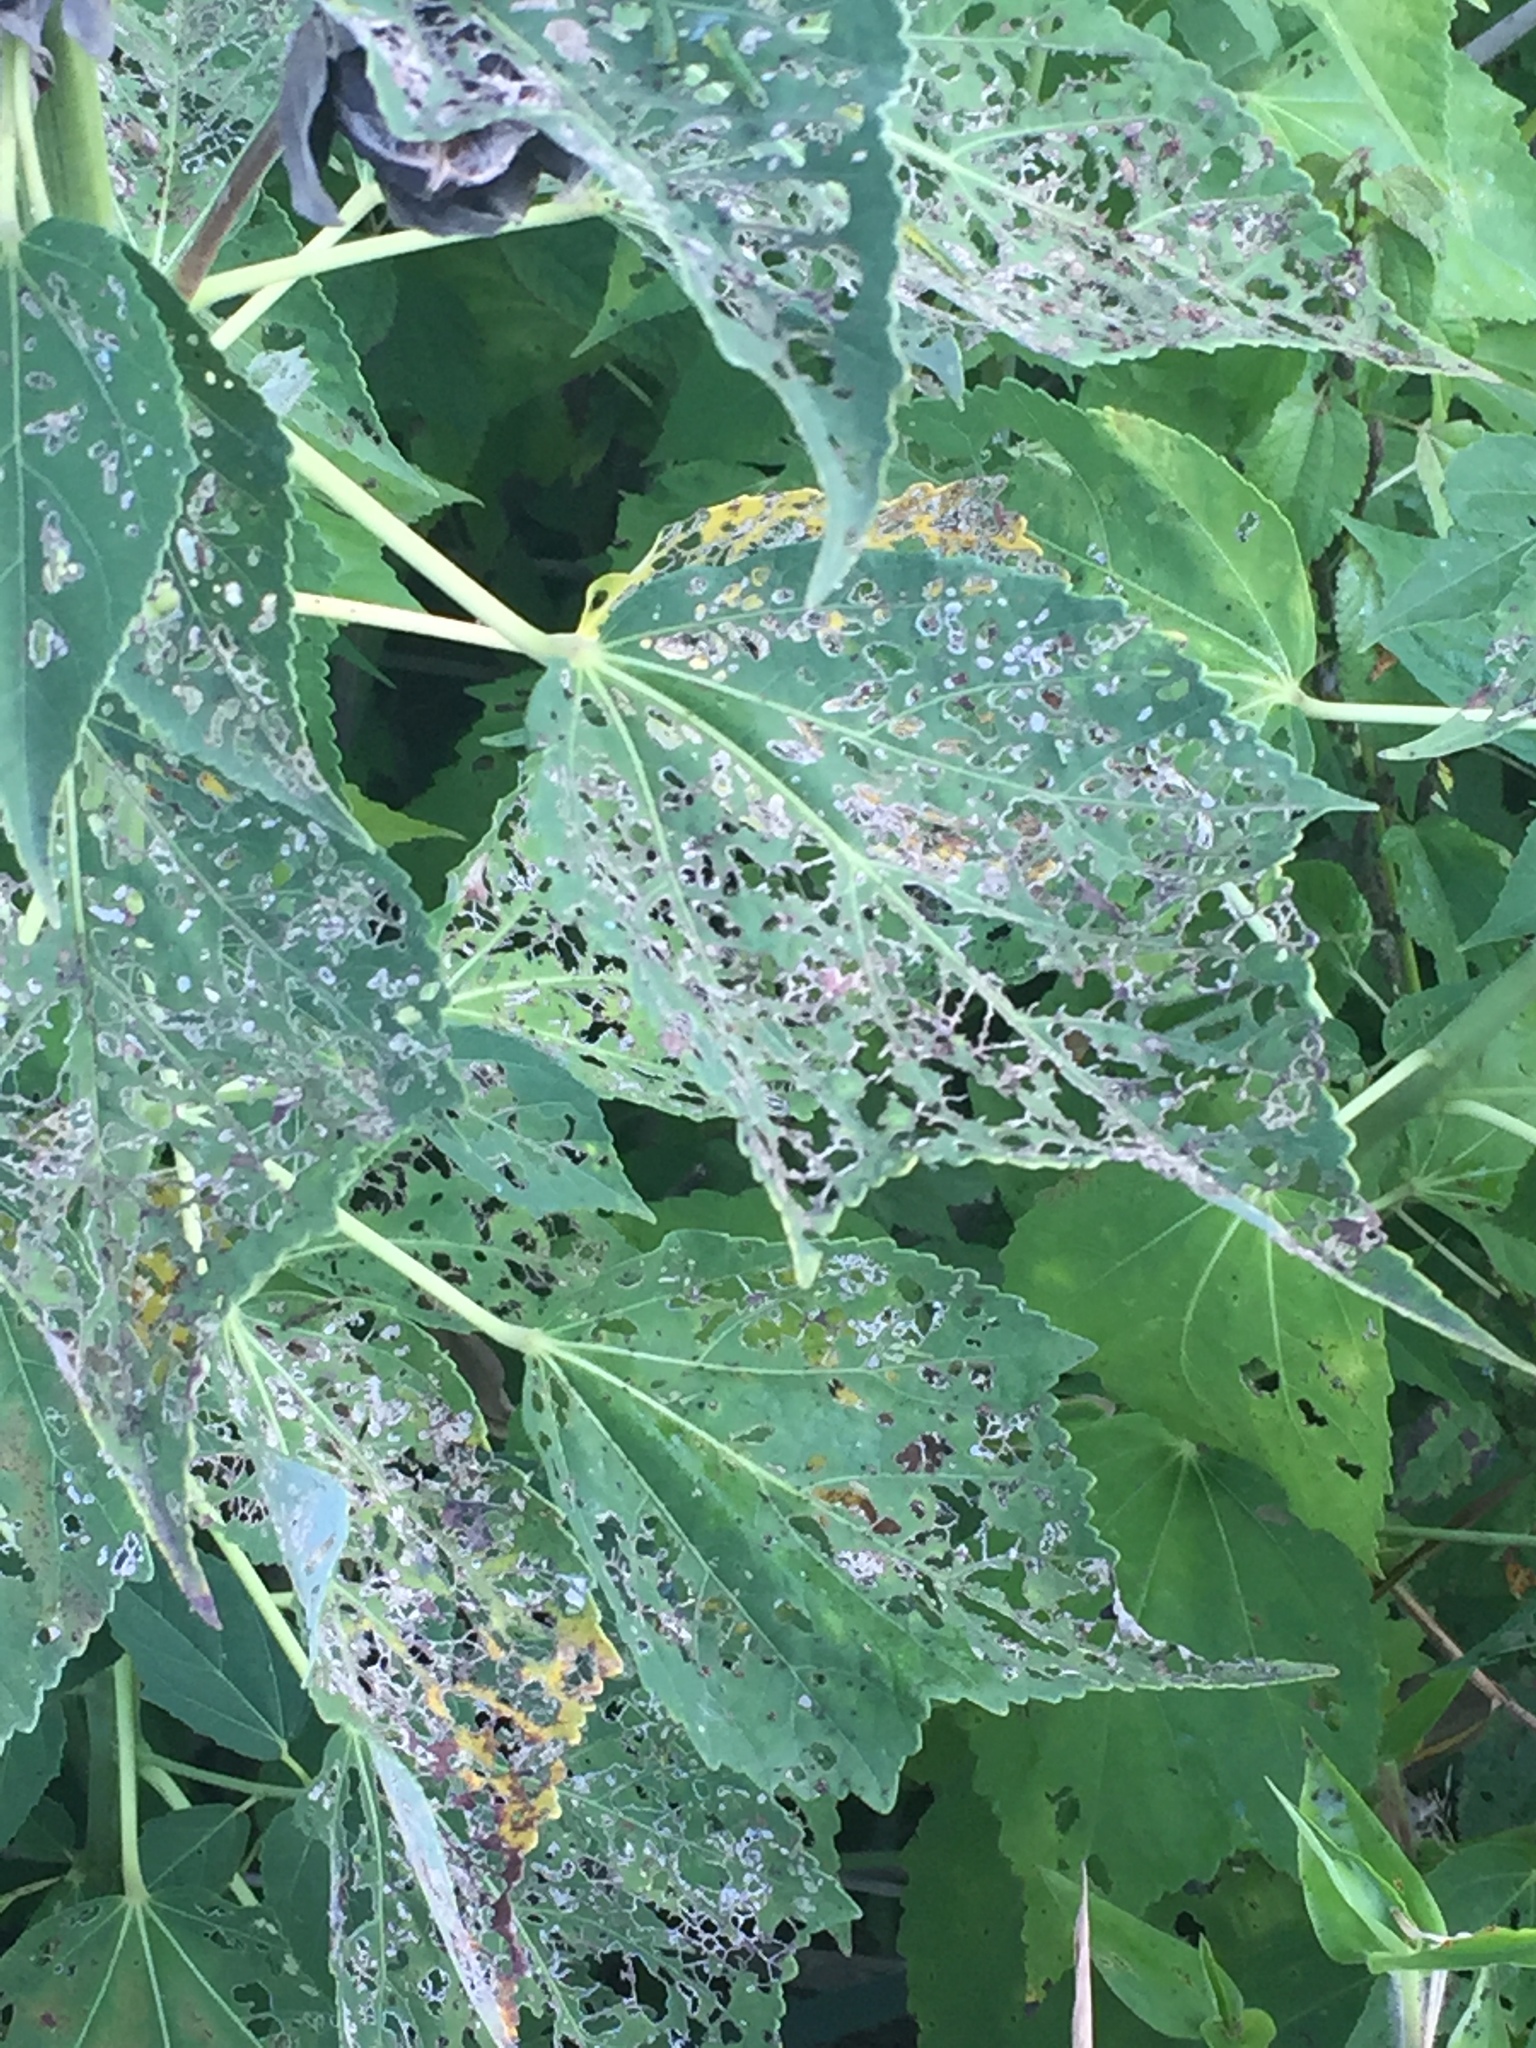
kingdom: Plantae
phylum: Tracheophyta
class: Magnoliopsida
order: Malvales
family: Malvaceae
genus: Hibiscus
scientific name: Hibiscus moscheutos
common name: Common rose-mallow
